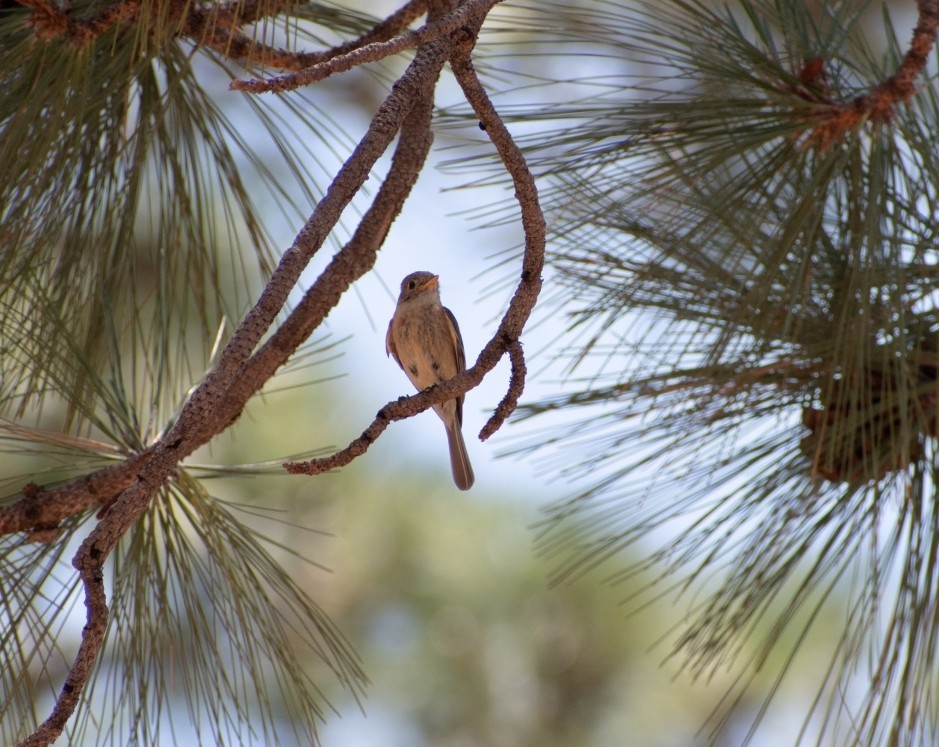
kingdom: Animalia
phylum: Chordata
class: Aves
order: Passeriformes
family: Tyrannidae
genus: Empidonax
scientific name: Empidonax fulvifrons
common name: Buff-breasted flycatcher
